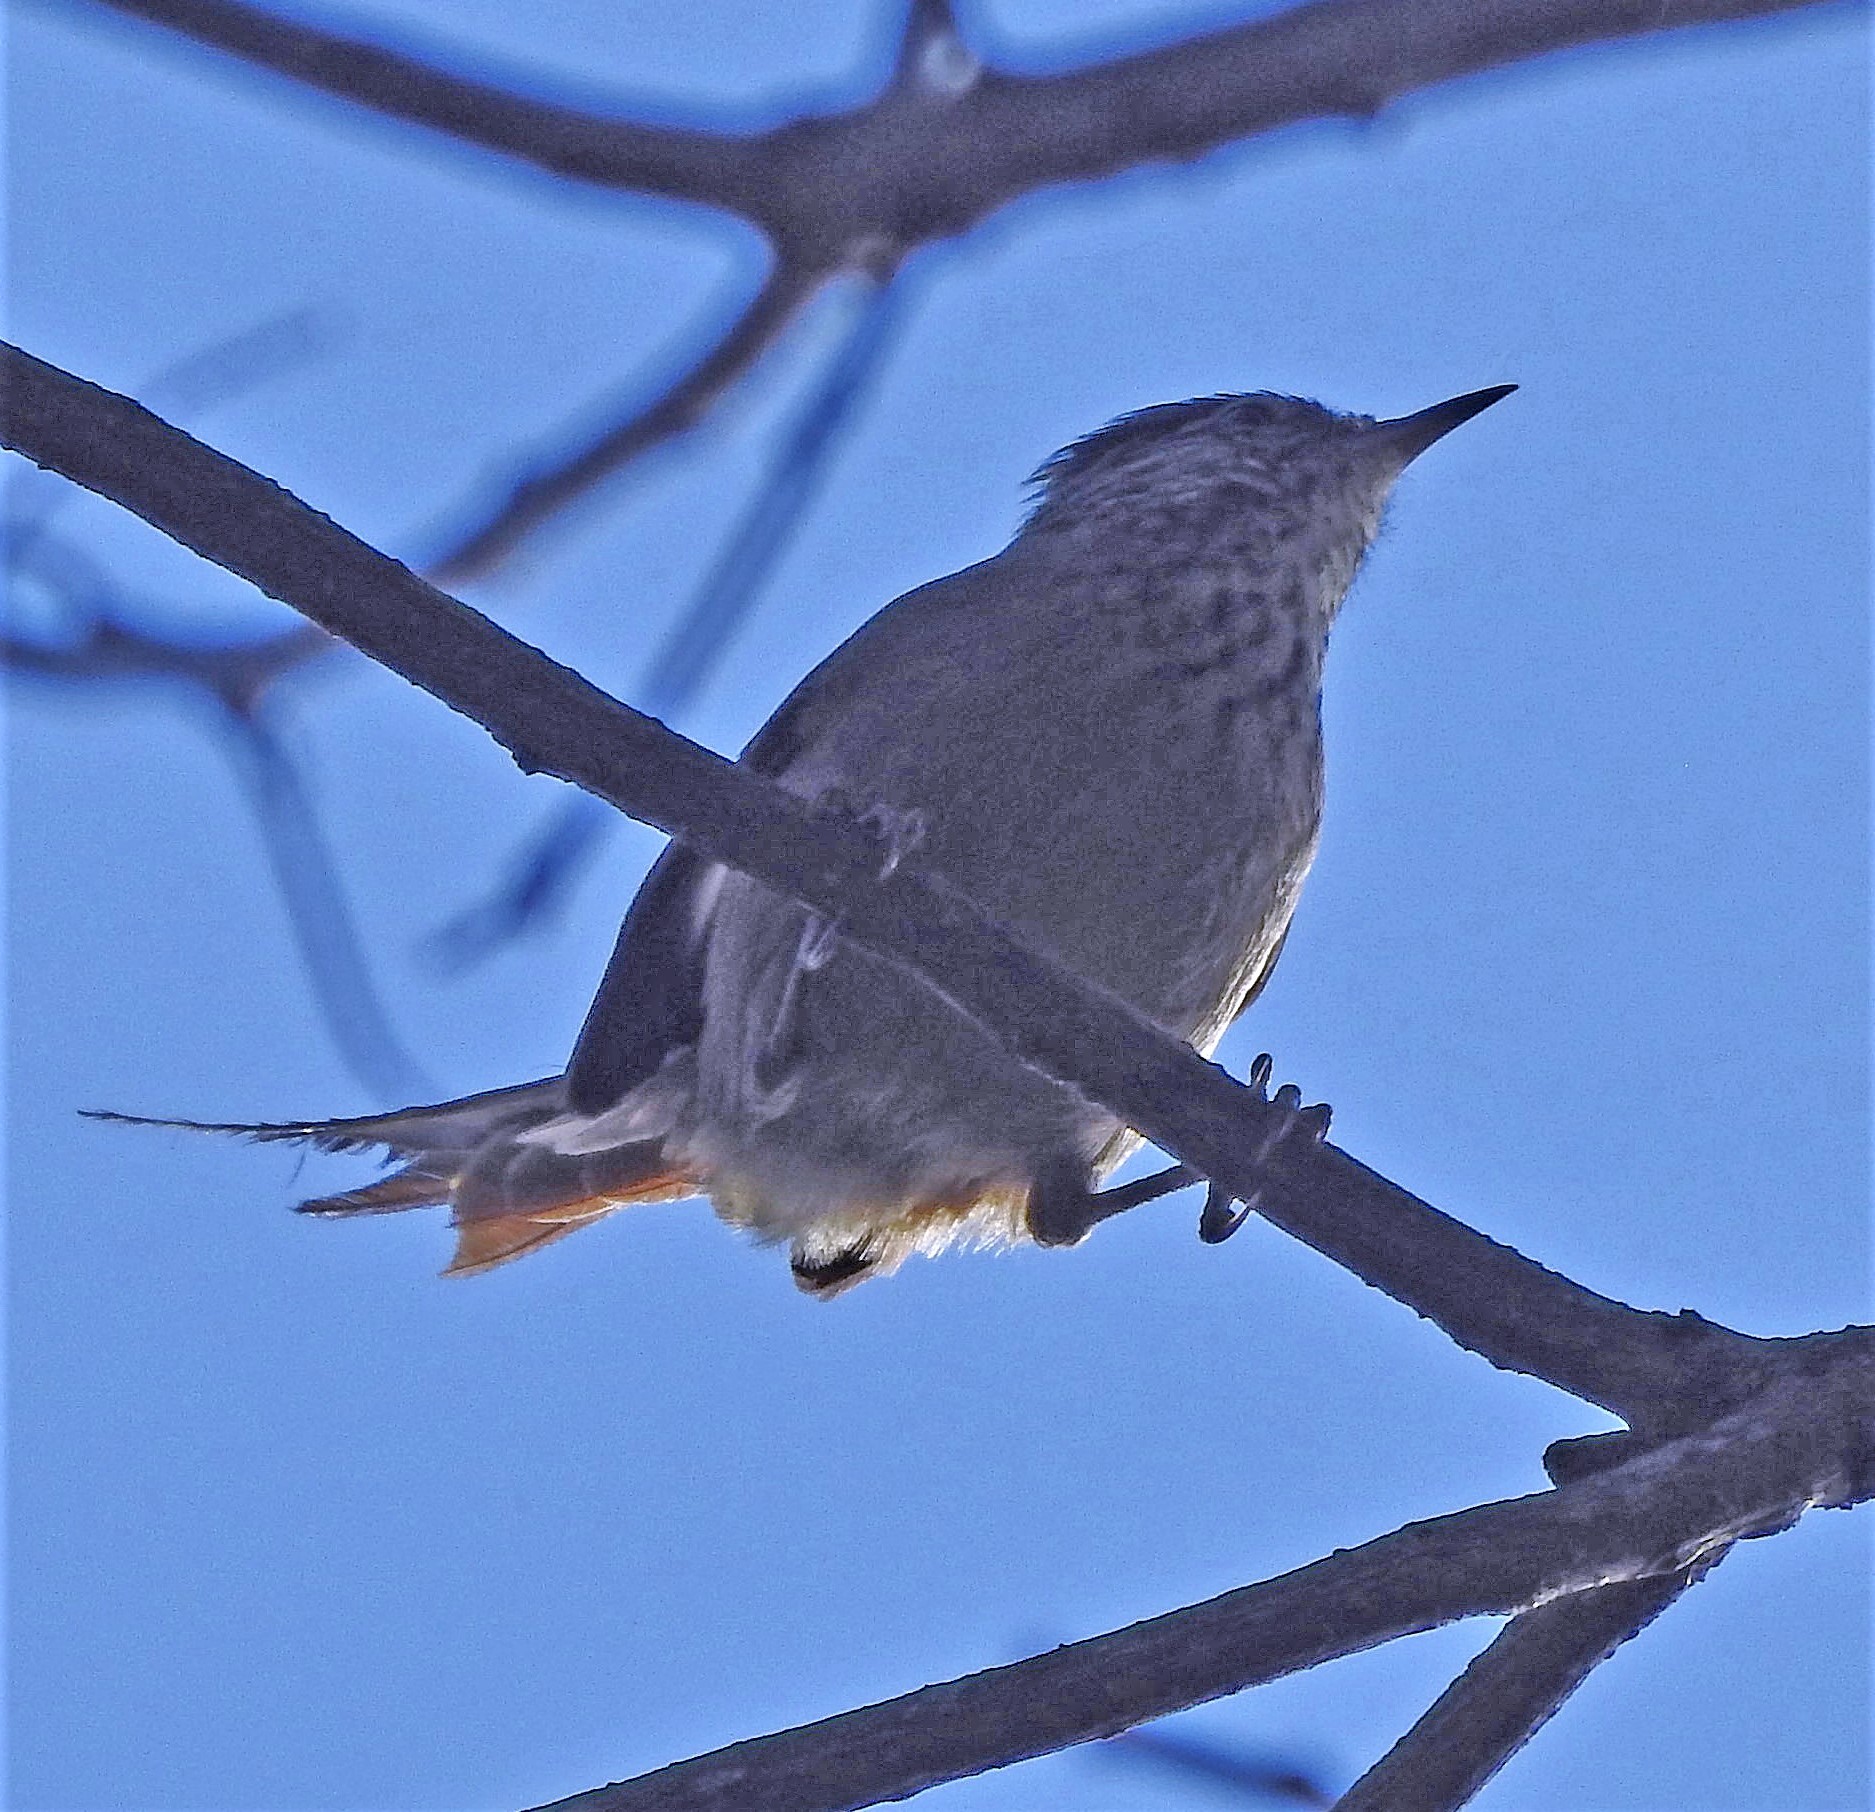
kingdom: Animalia
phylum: Chordata
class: Aves
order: Passeriformes
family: Furnariidae
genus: Leptasthenura
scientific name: Leptasthenura setaria
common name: Araucaria tit-spinetail
